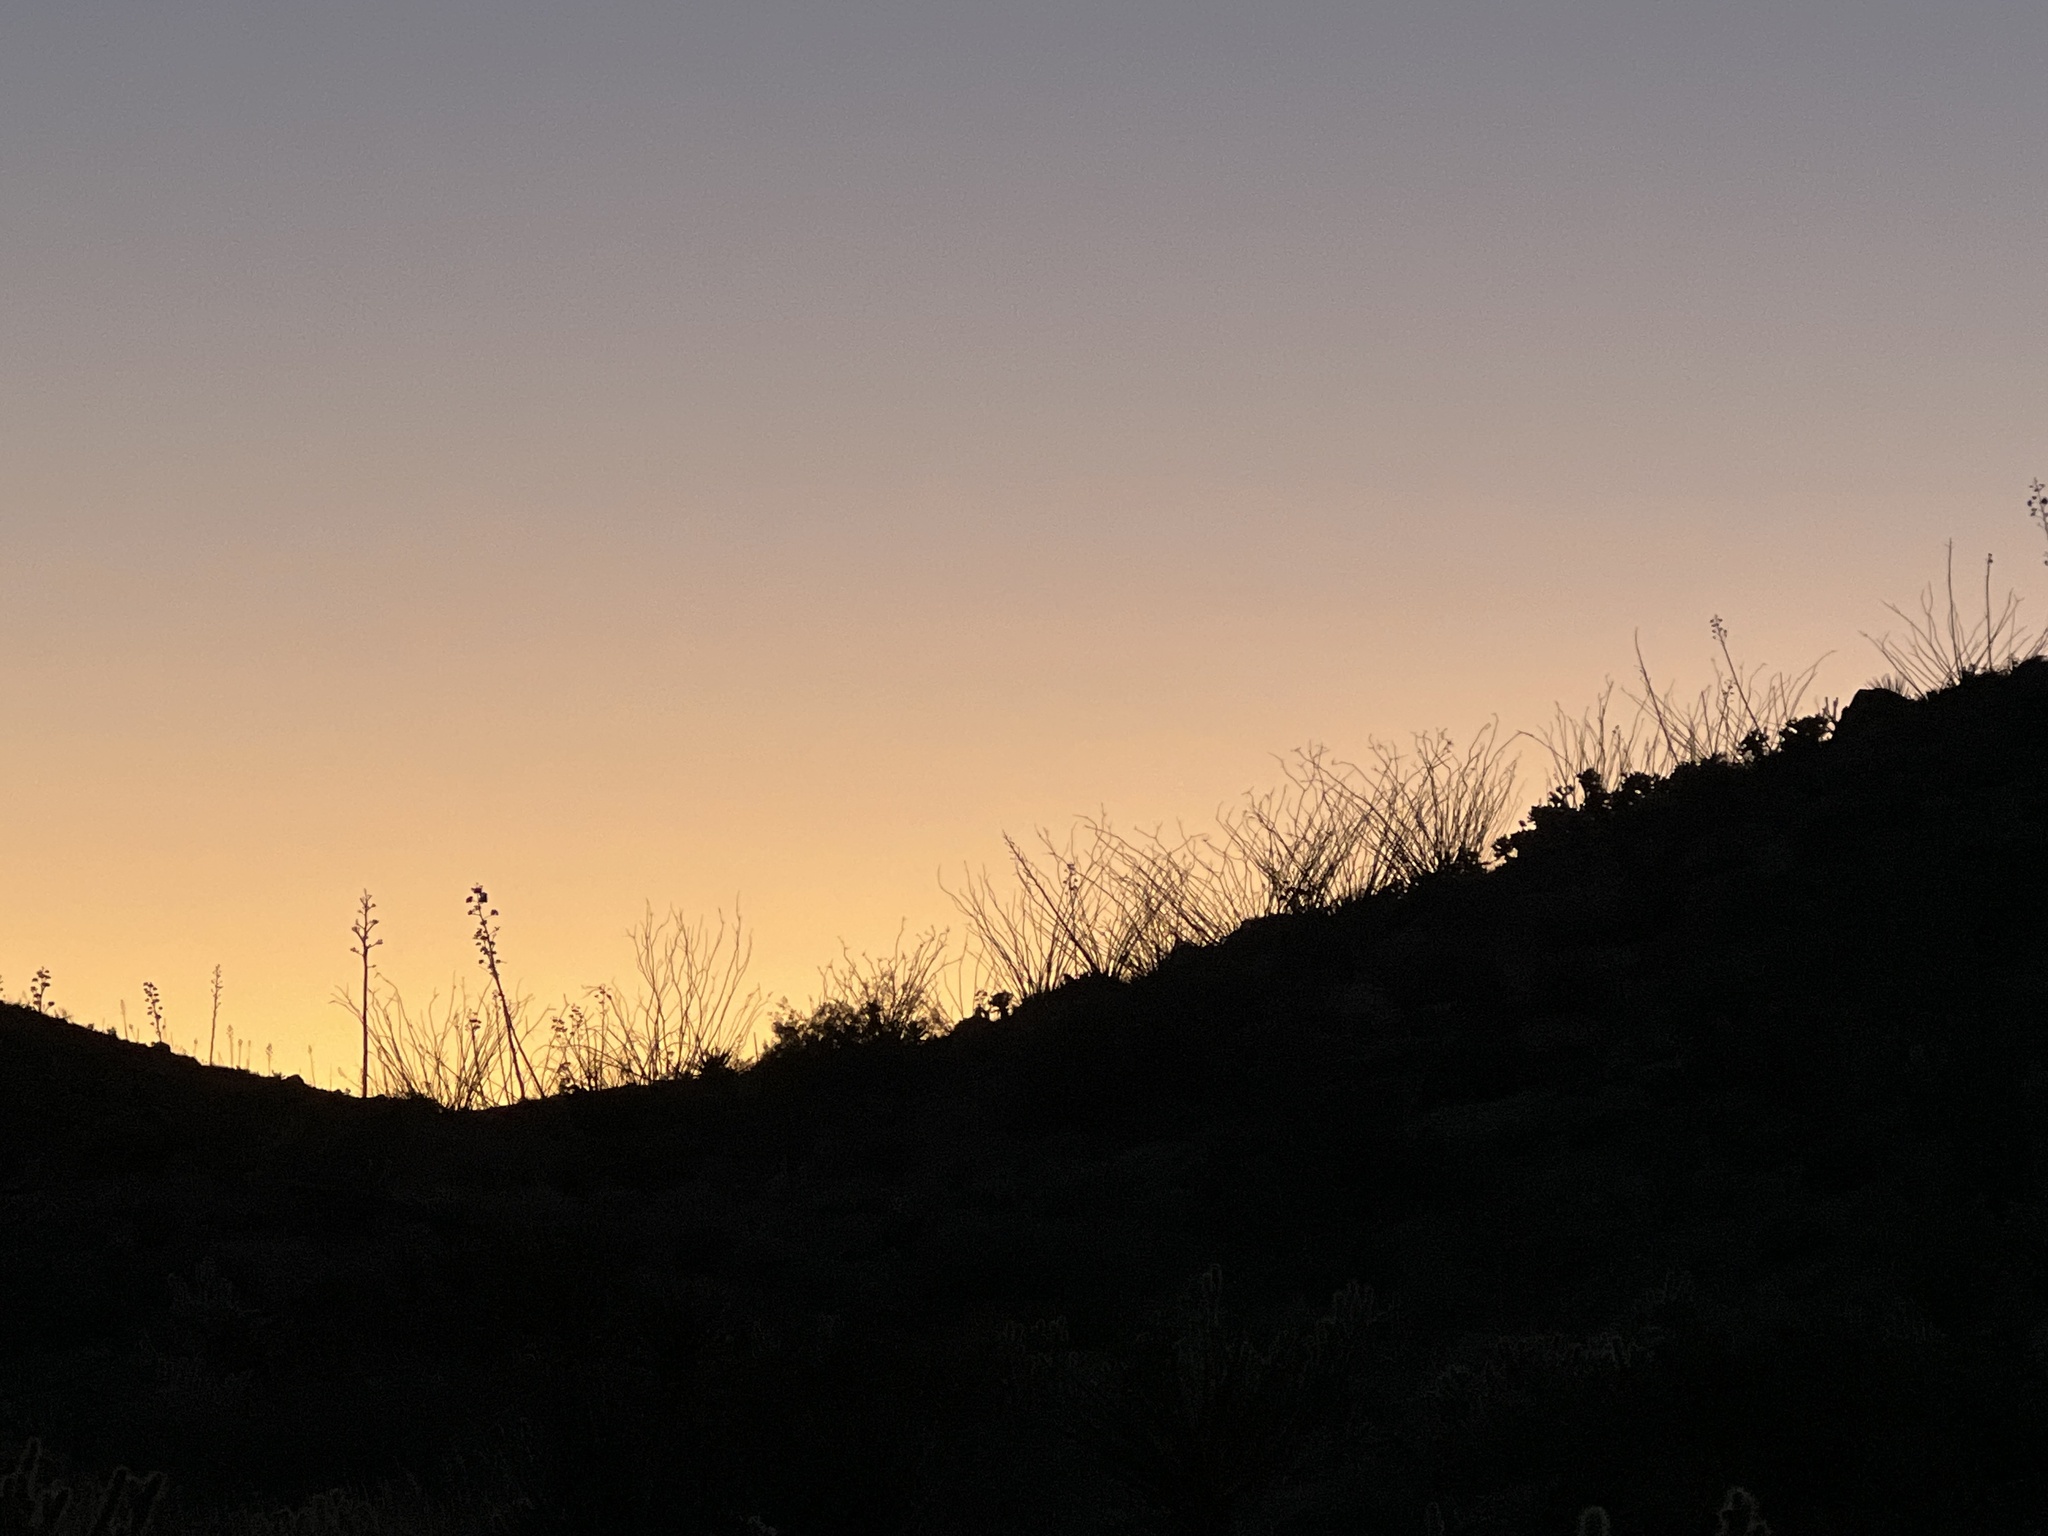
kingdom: Plantae
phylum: Tracheophyta
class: Magnoliopsida
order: Ericales
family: Fouquieriaceae
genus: Fouquieria
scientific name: Fouquieria splendens
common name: Vine-cactus
